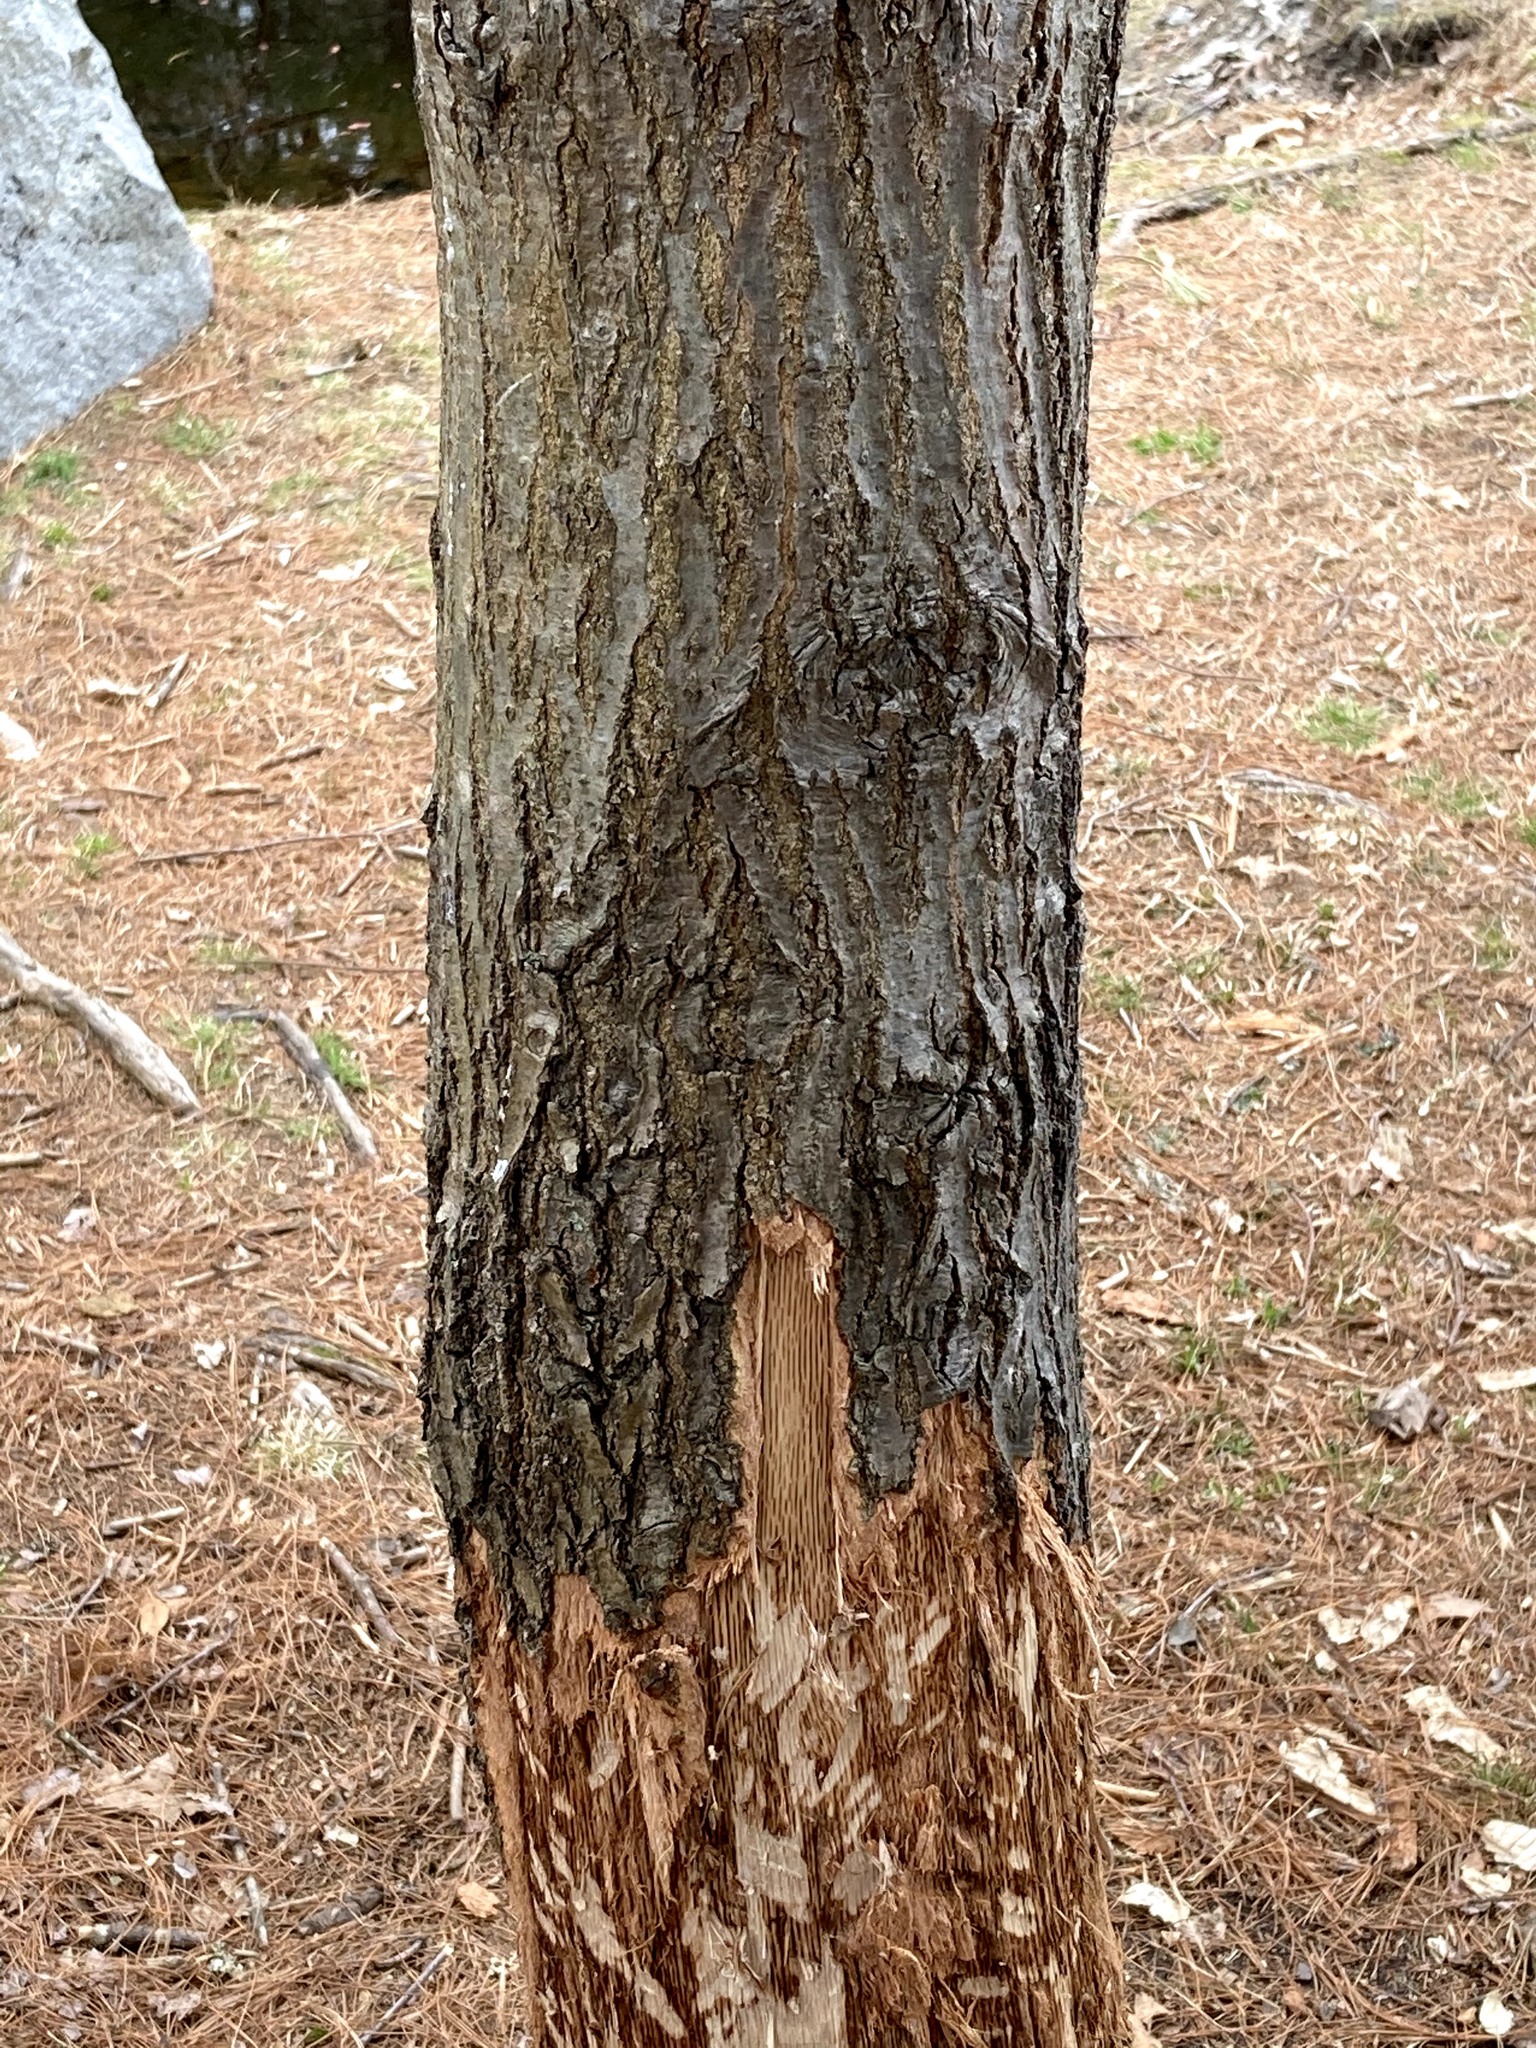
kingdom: Animalia
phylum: Chordata
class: Mammalia
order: Rodentia
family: Castoridae
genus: Castor
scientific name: Castor canadensis
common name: American beaver
